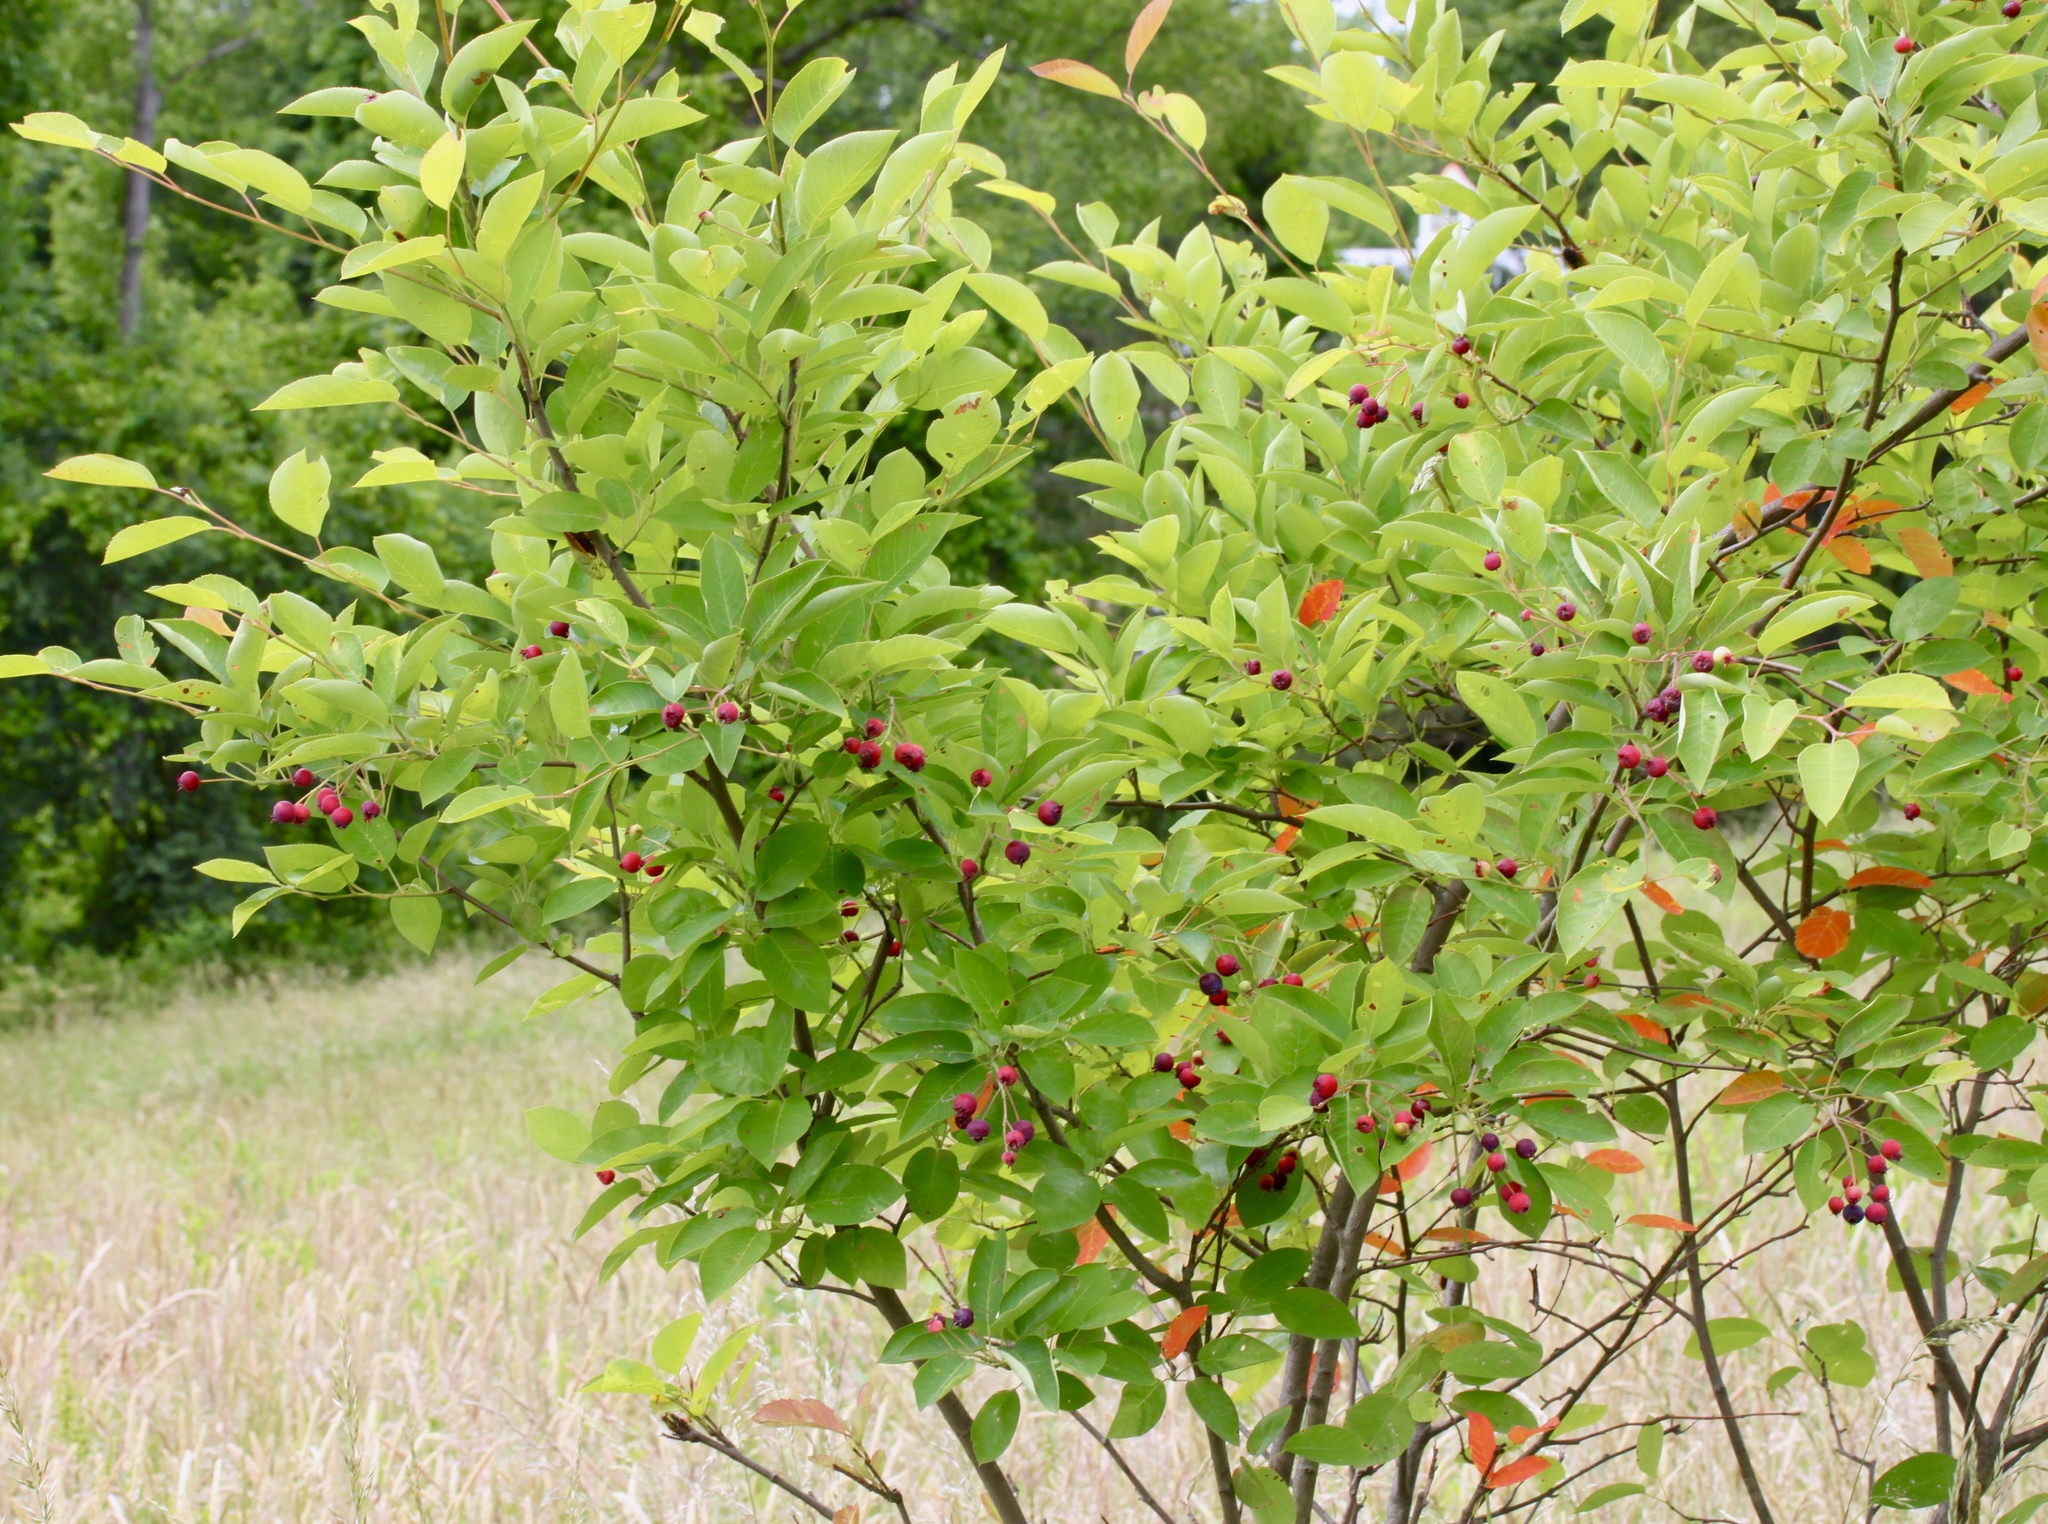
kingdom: Plantae
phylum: Tracheophyta
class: Magnoliopsida
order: Rosales
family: Rosaceae
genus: Amelanchier
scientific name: Amelanchier arborea
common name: Downy serviceberry
